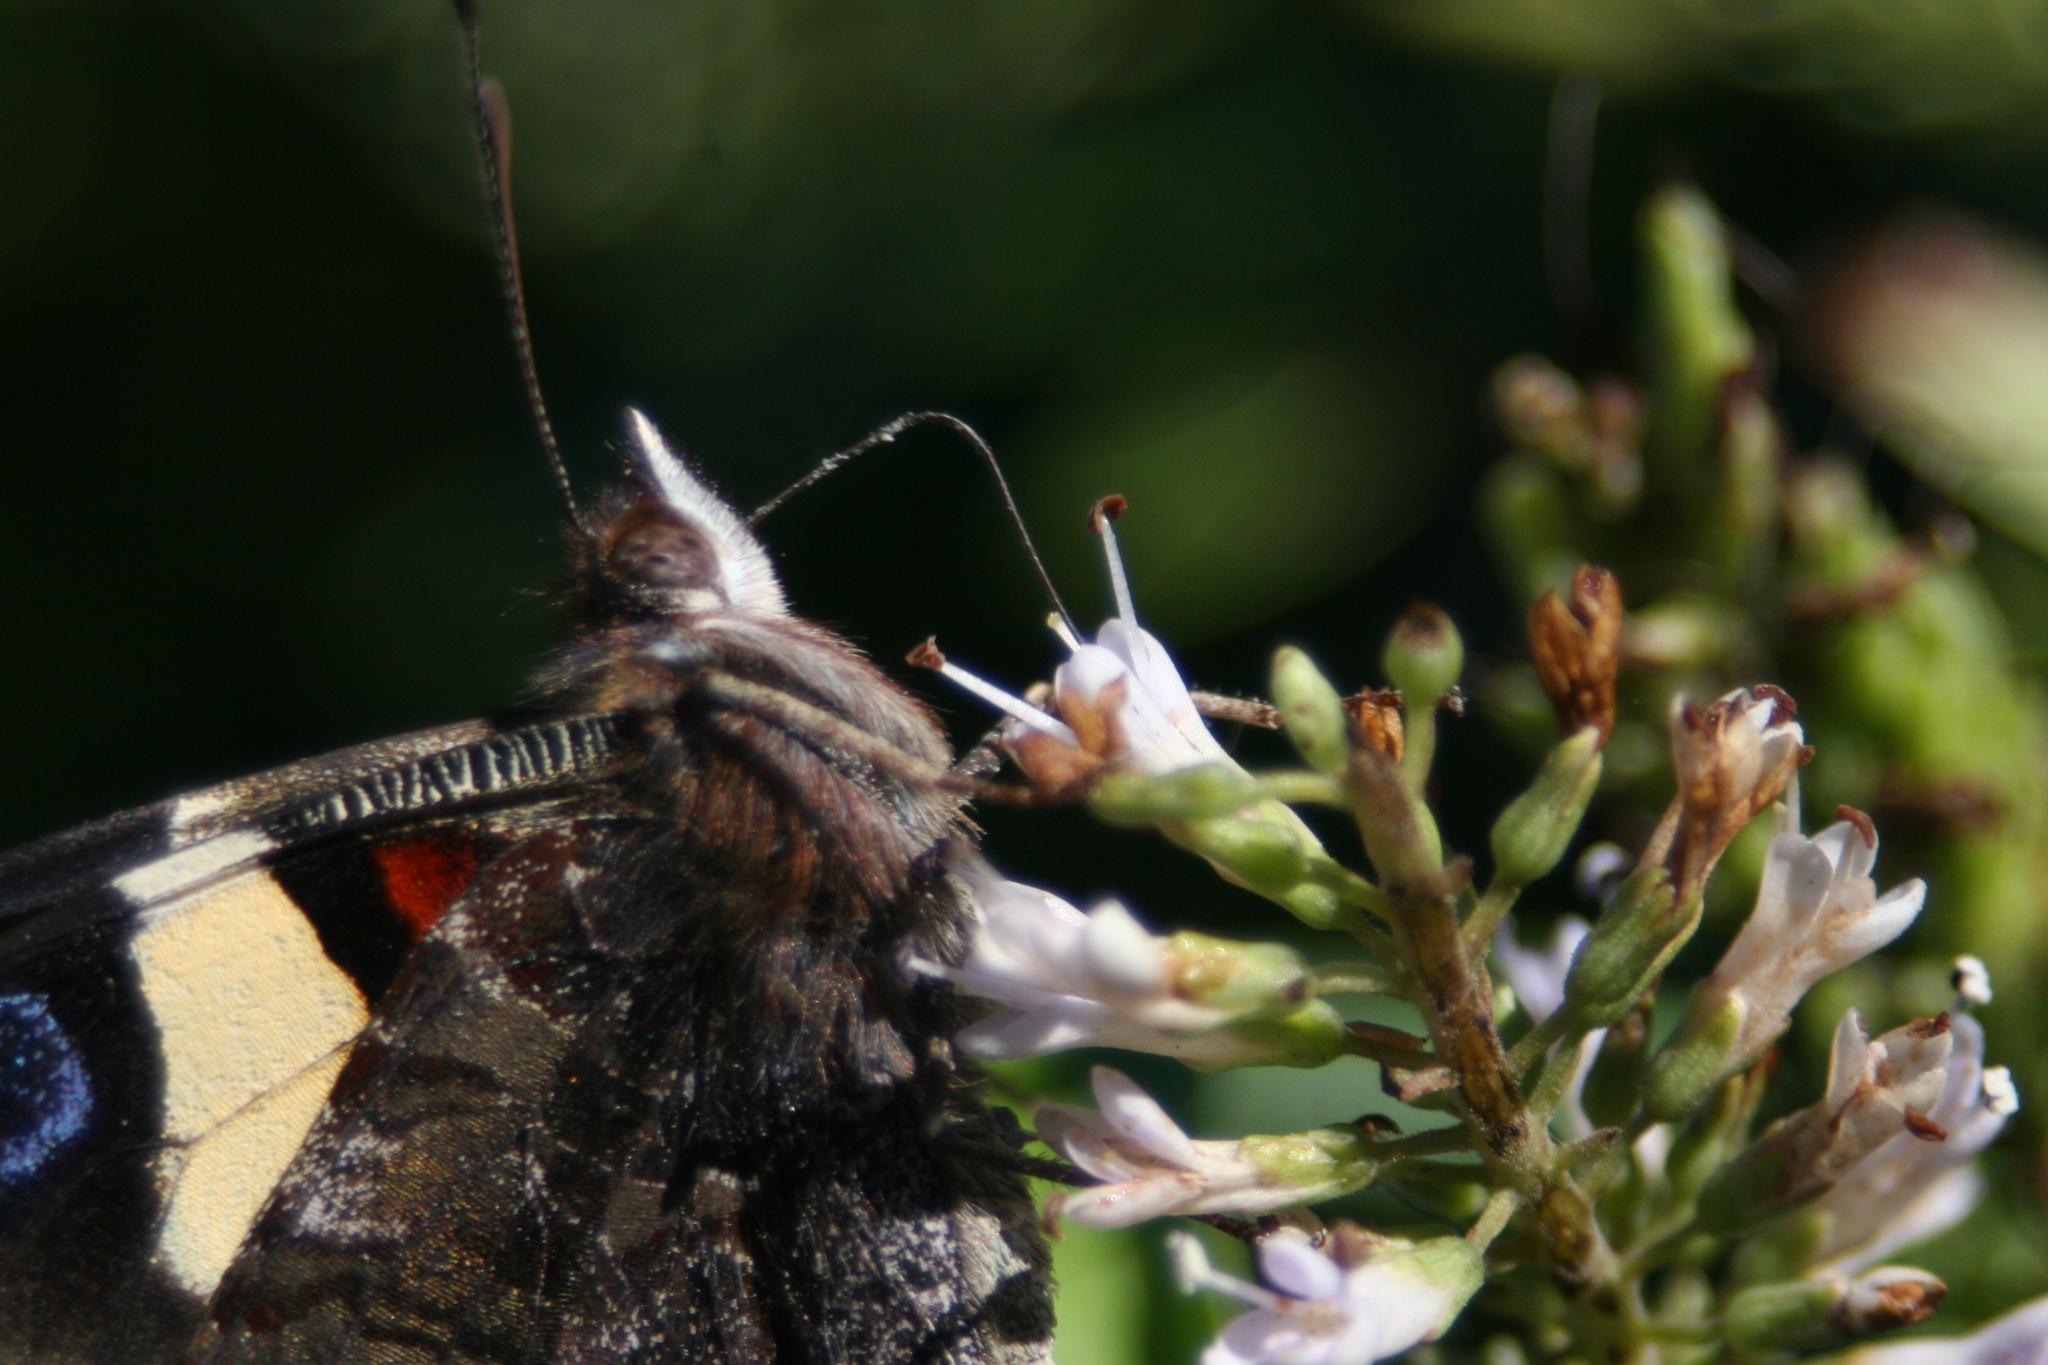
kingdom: Animalia
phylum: Arthropoda
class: Insecta
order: Lepidoptera
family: Nymphalidae
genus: Vanessa
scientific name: Vanessa itea
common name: Yellow admiral
